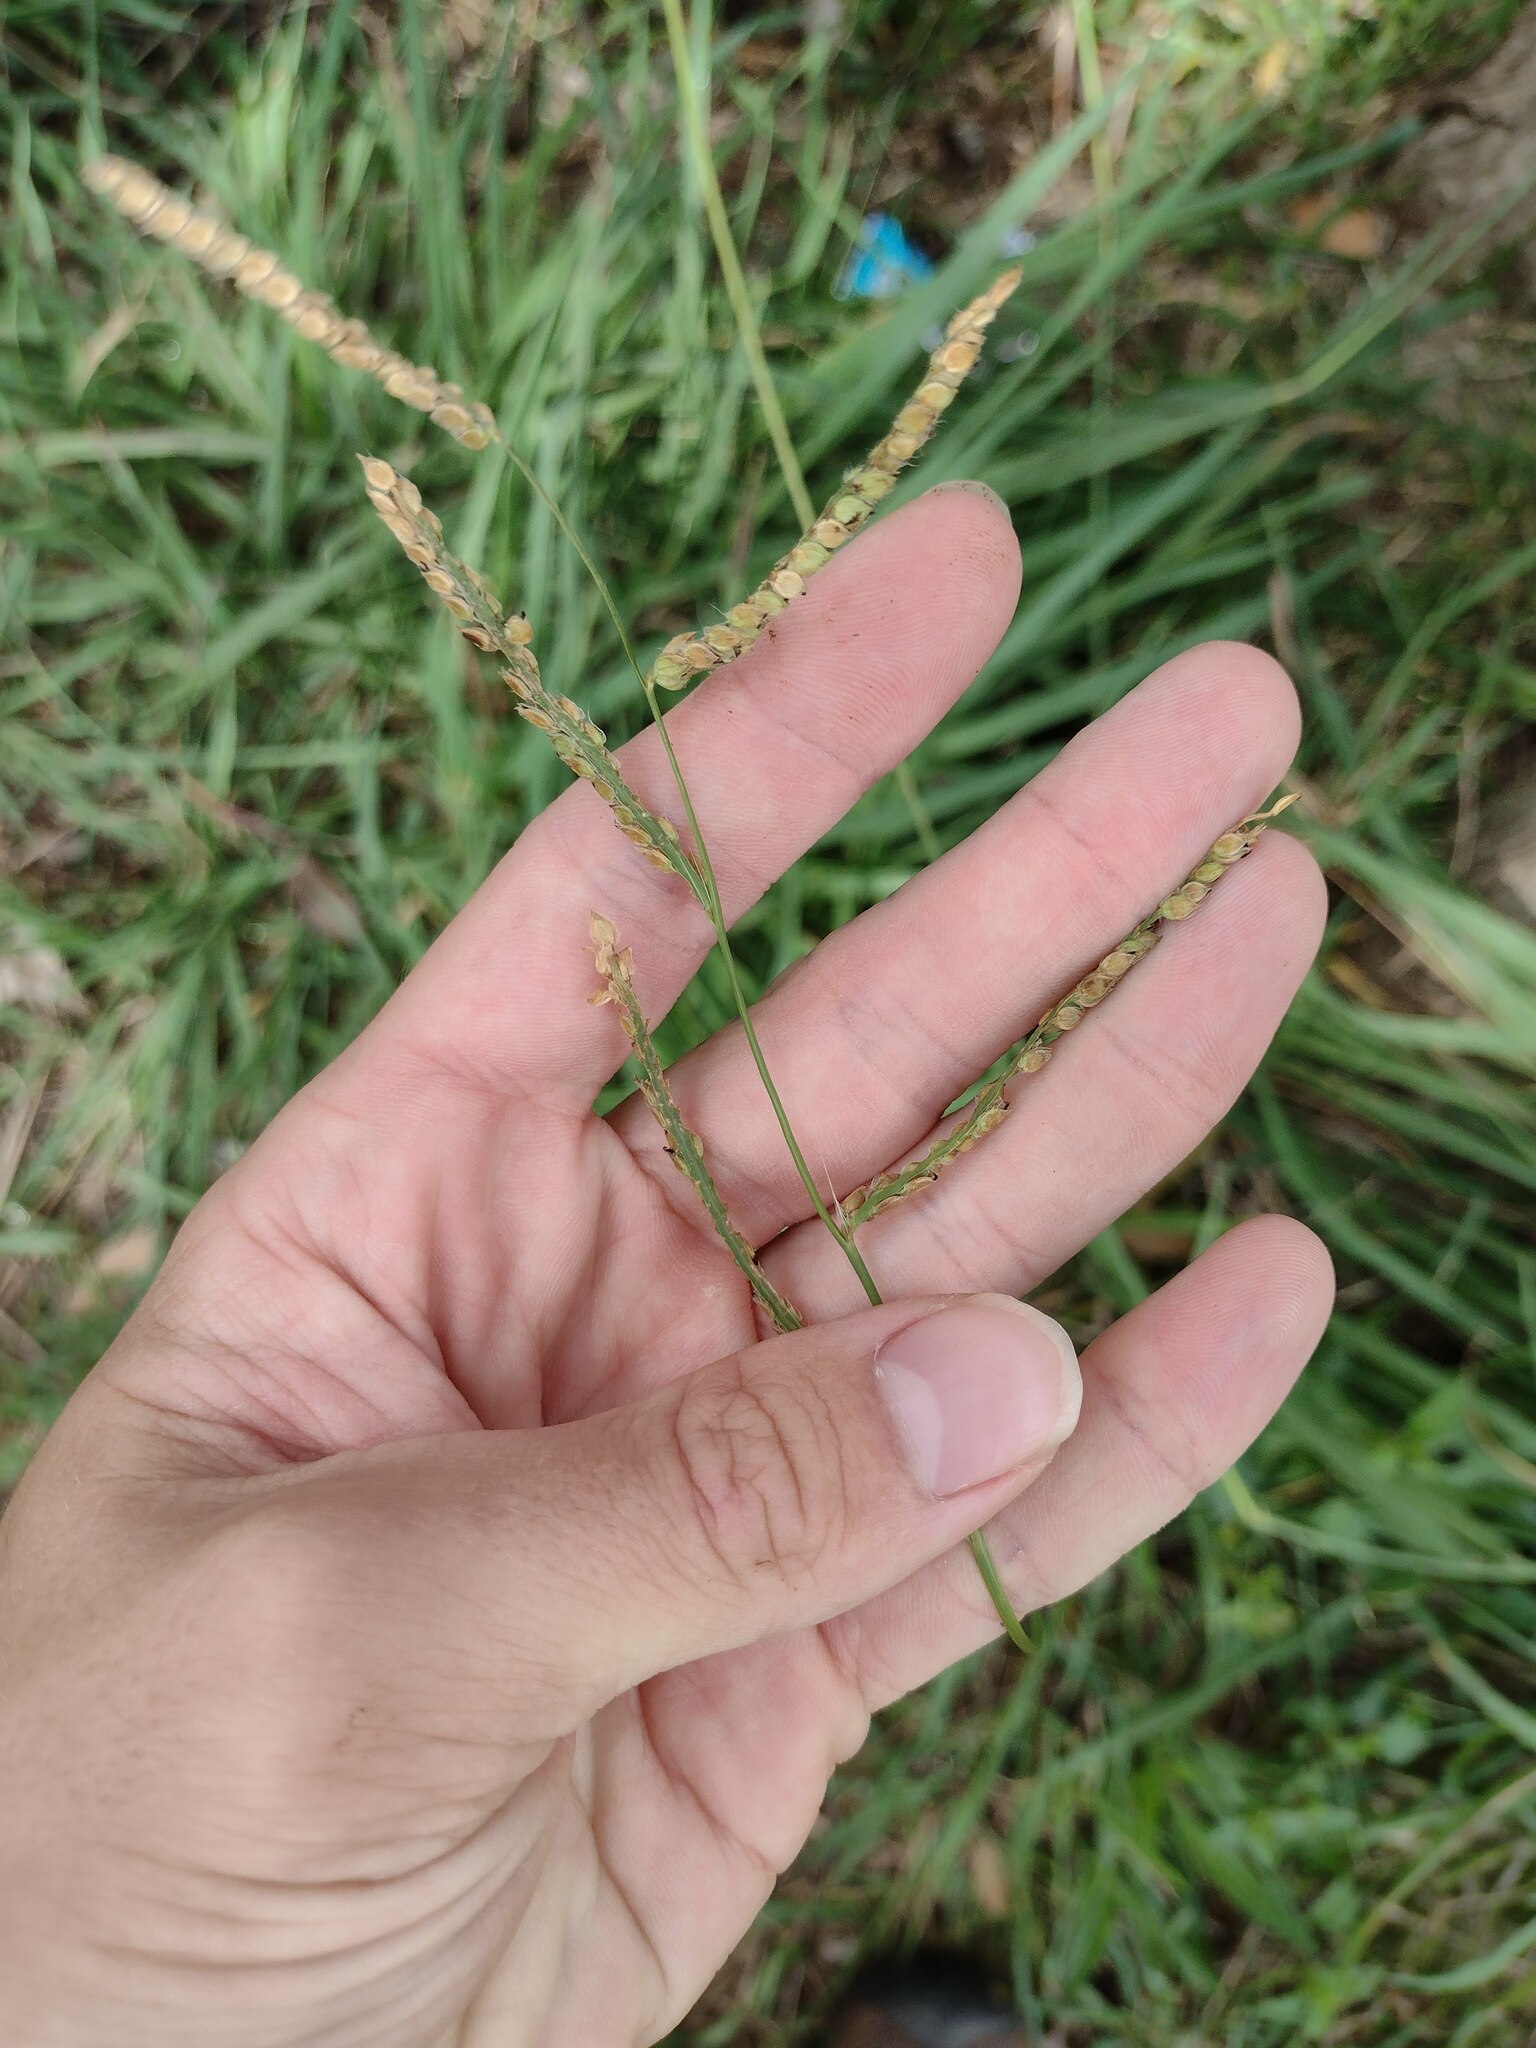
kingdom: Plantae
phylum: Tracheophyta
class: Liliopsida
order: Poales
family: Poaceae
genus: Paspalum
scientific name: Paspalum dilatatum
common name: Dallisgrass
